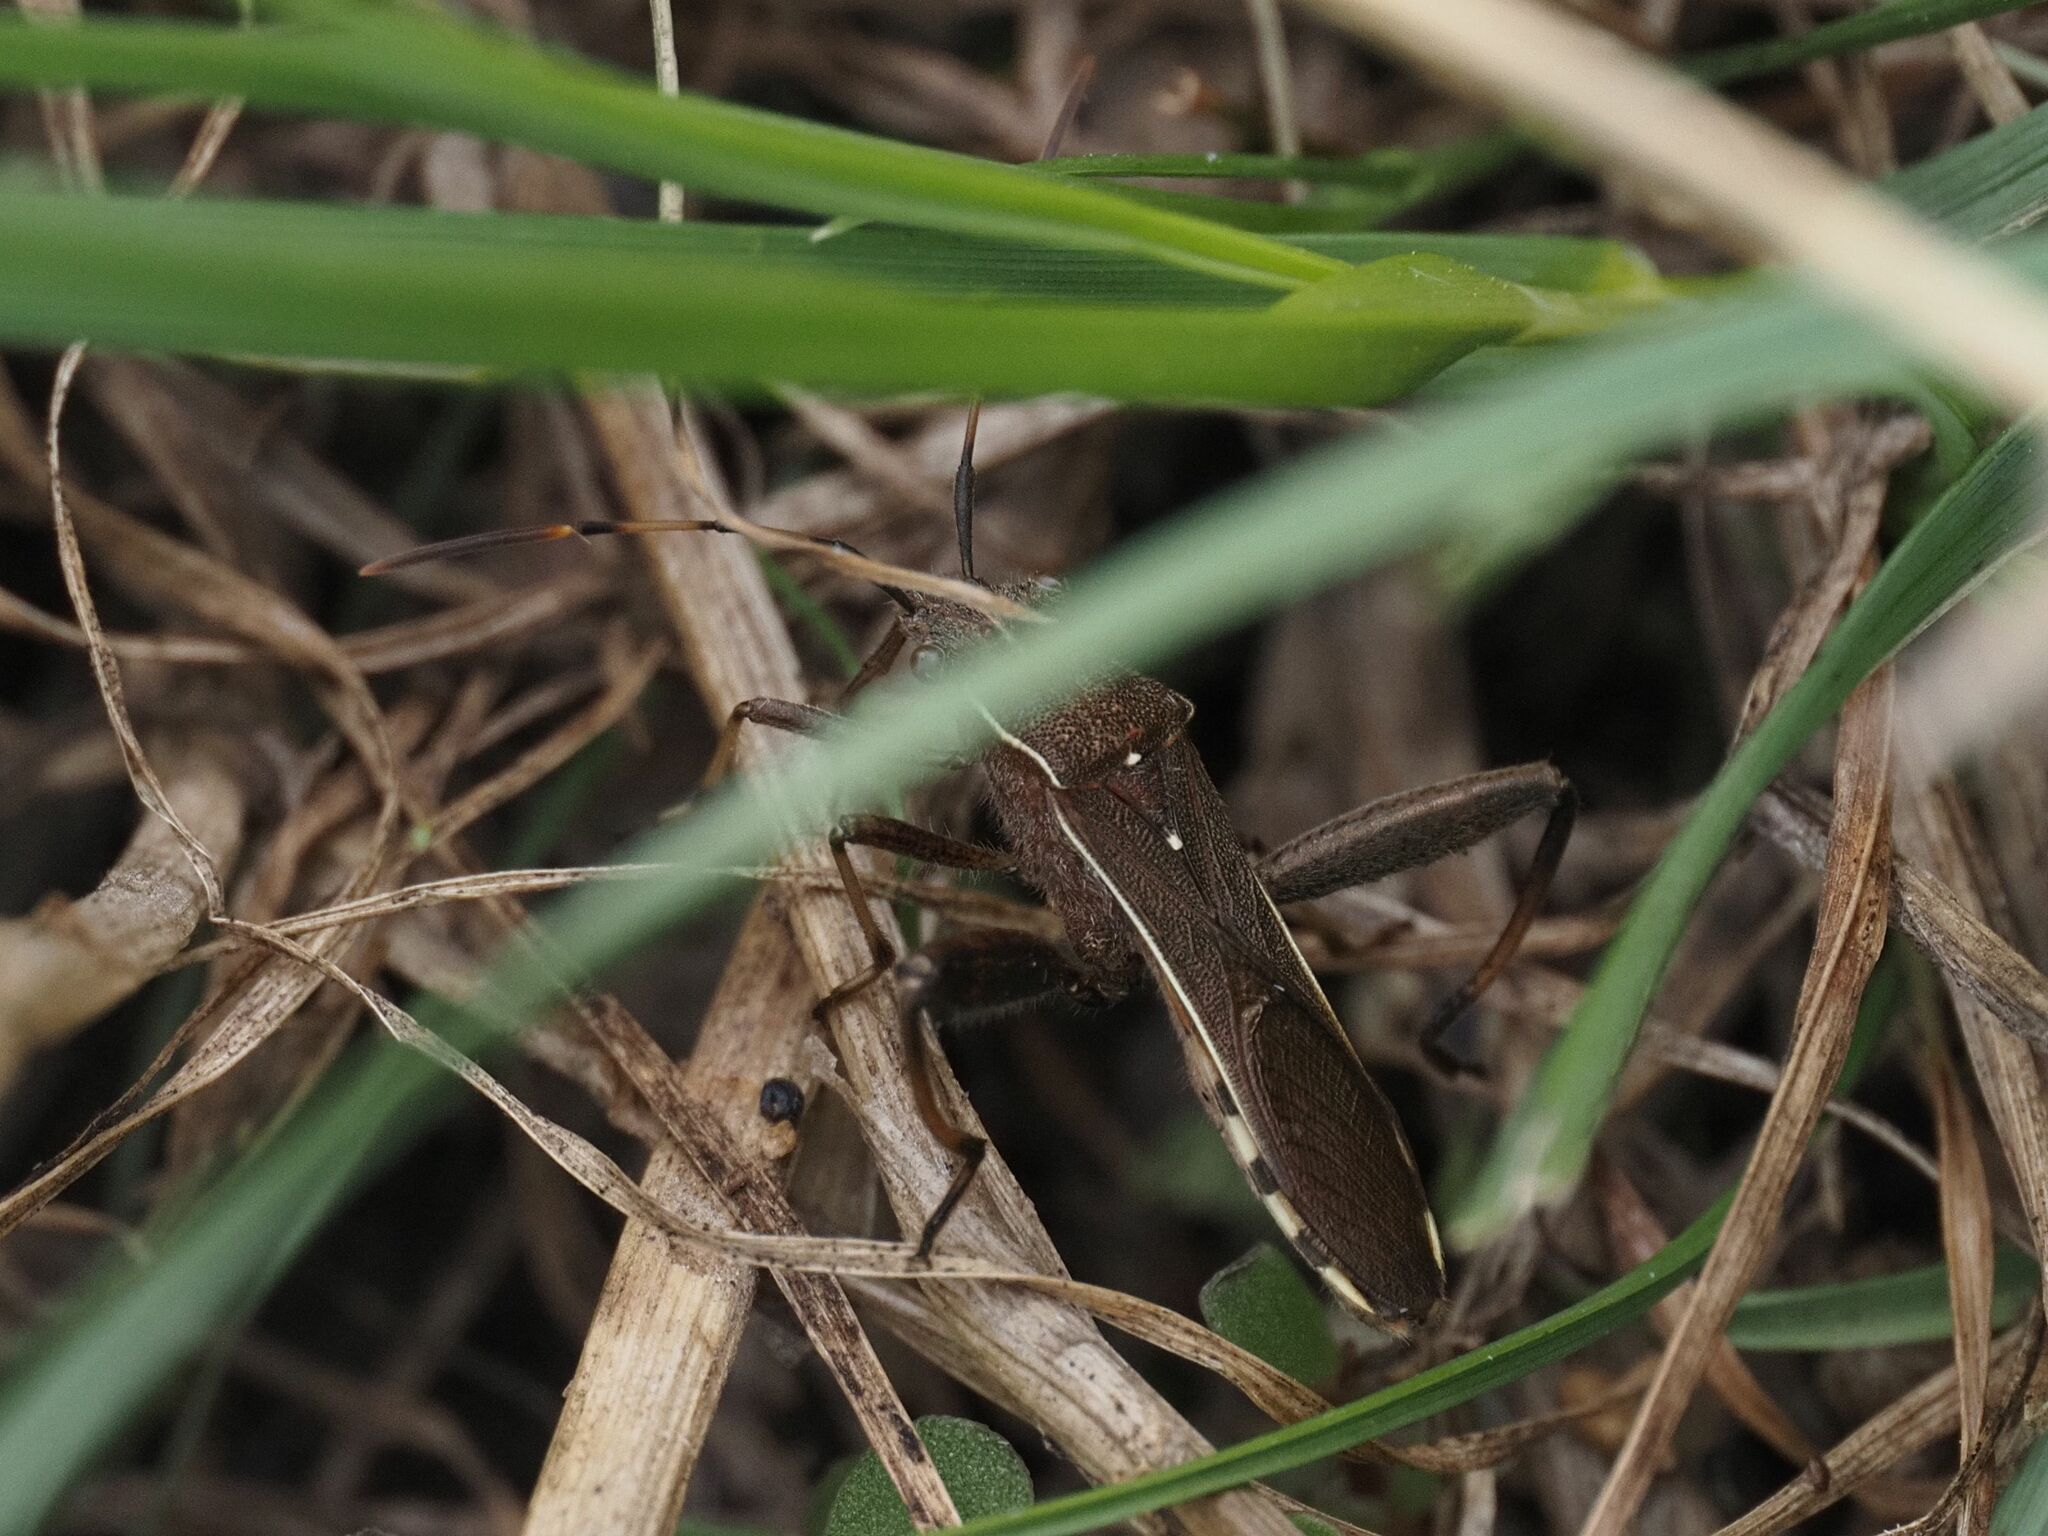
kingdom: Animalia
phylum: Arthropoda
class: Insecta
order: Hemiptera
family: Alydidae
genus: Camptopus
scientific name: Camptopus lateralis
